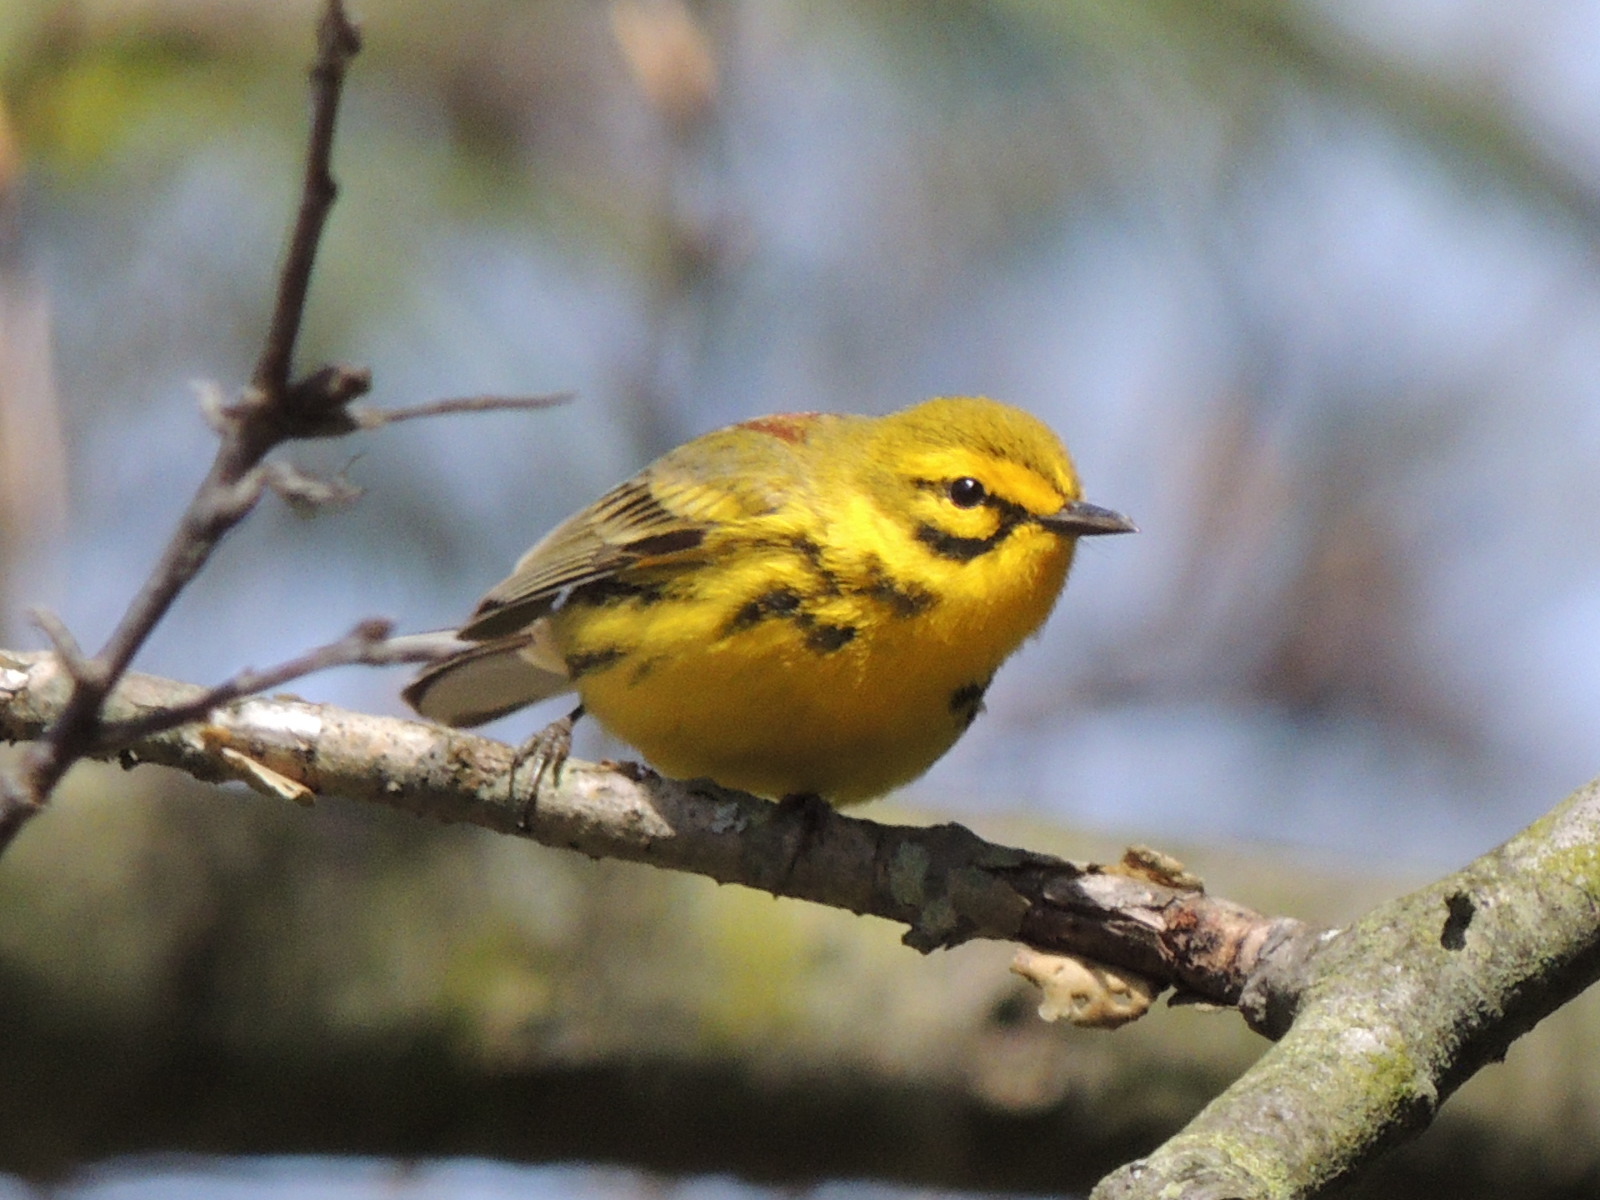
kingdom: Animalia
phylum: Chordata
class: Aves
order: Passeriformes
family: Parulidae
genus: Setophaga
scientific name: Setophaga discolor
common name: Prairie warbler
